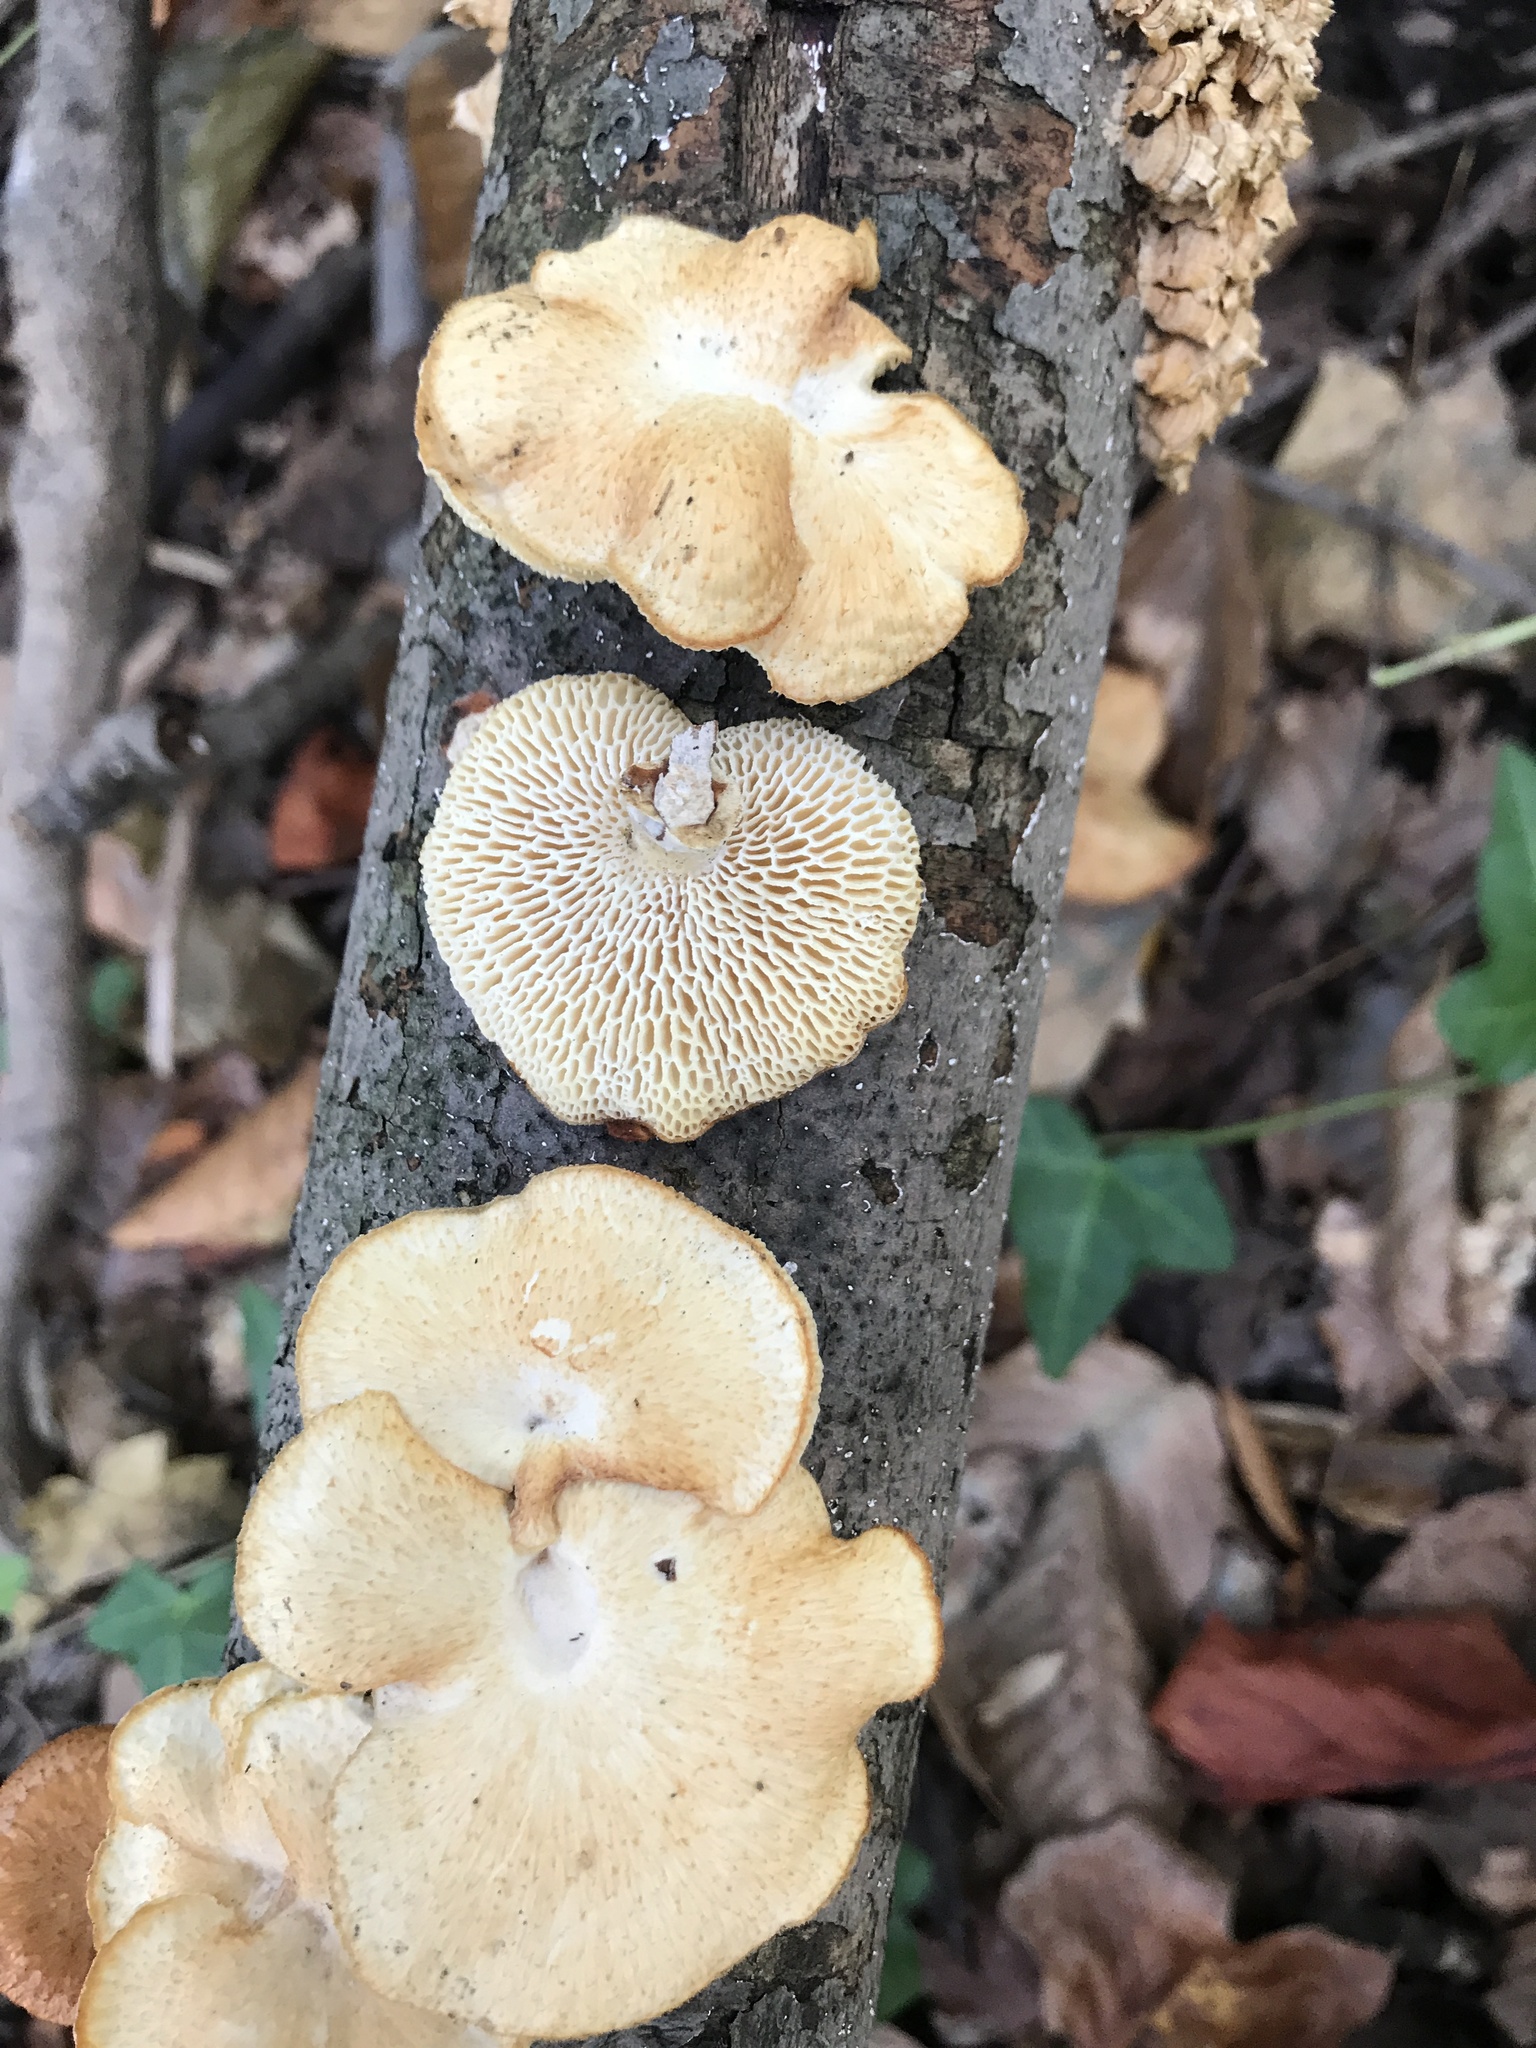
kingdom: Fungi
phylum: Basidiomycota
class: Agaricomycetes
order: Polyporales
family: Polyporaceae
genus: Neofavolus
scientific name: Neofavolus alveolaris
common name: Hexagonal-pored polypore
